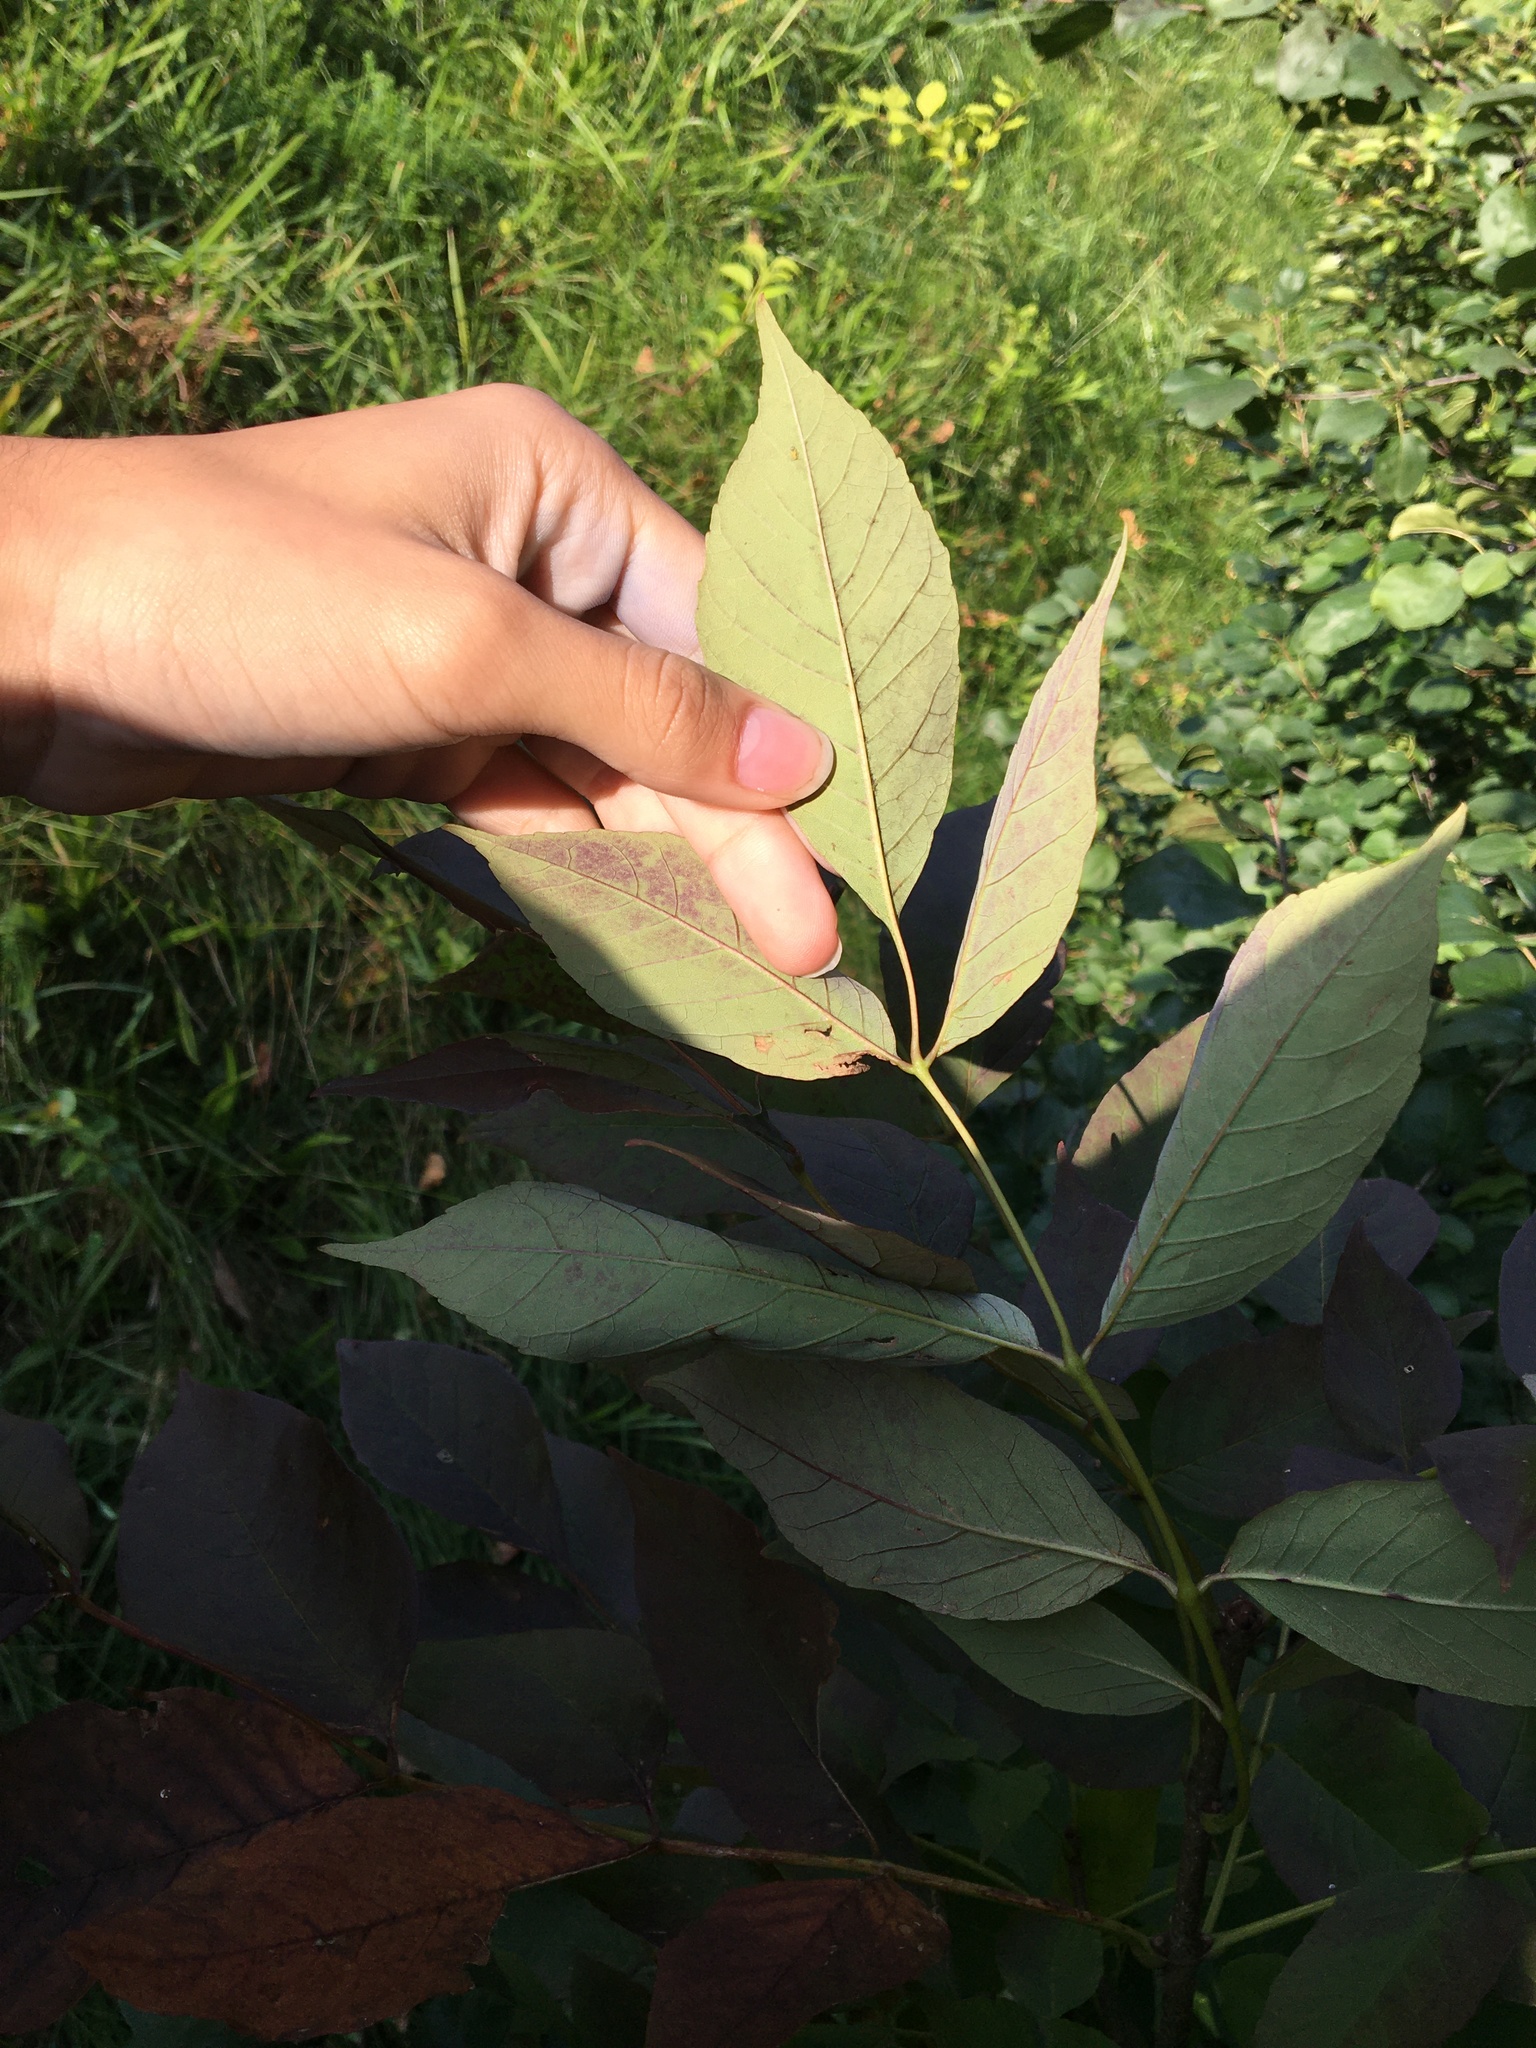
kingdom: Plantae
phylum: Tracheophyta
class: Magnoliopsida
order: Lamiales
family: Oleaceae
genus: Fraxinus
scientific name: Fraxinus americana
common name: White ash
